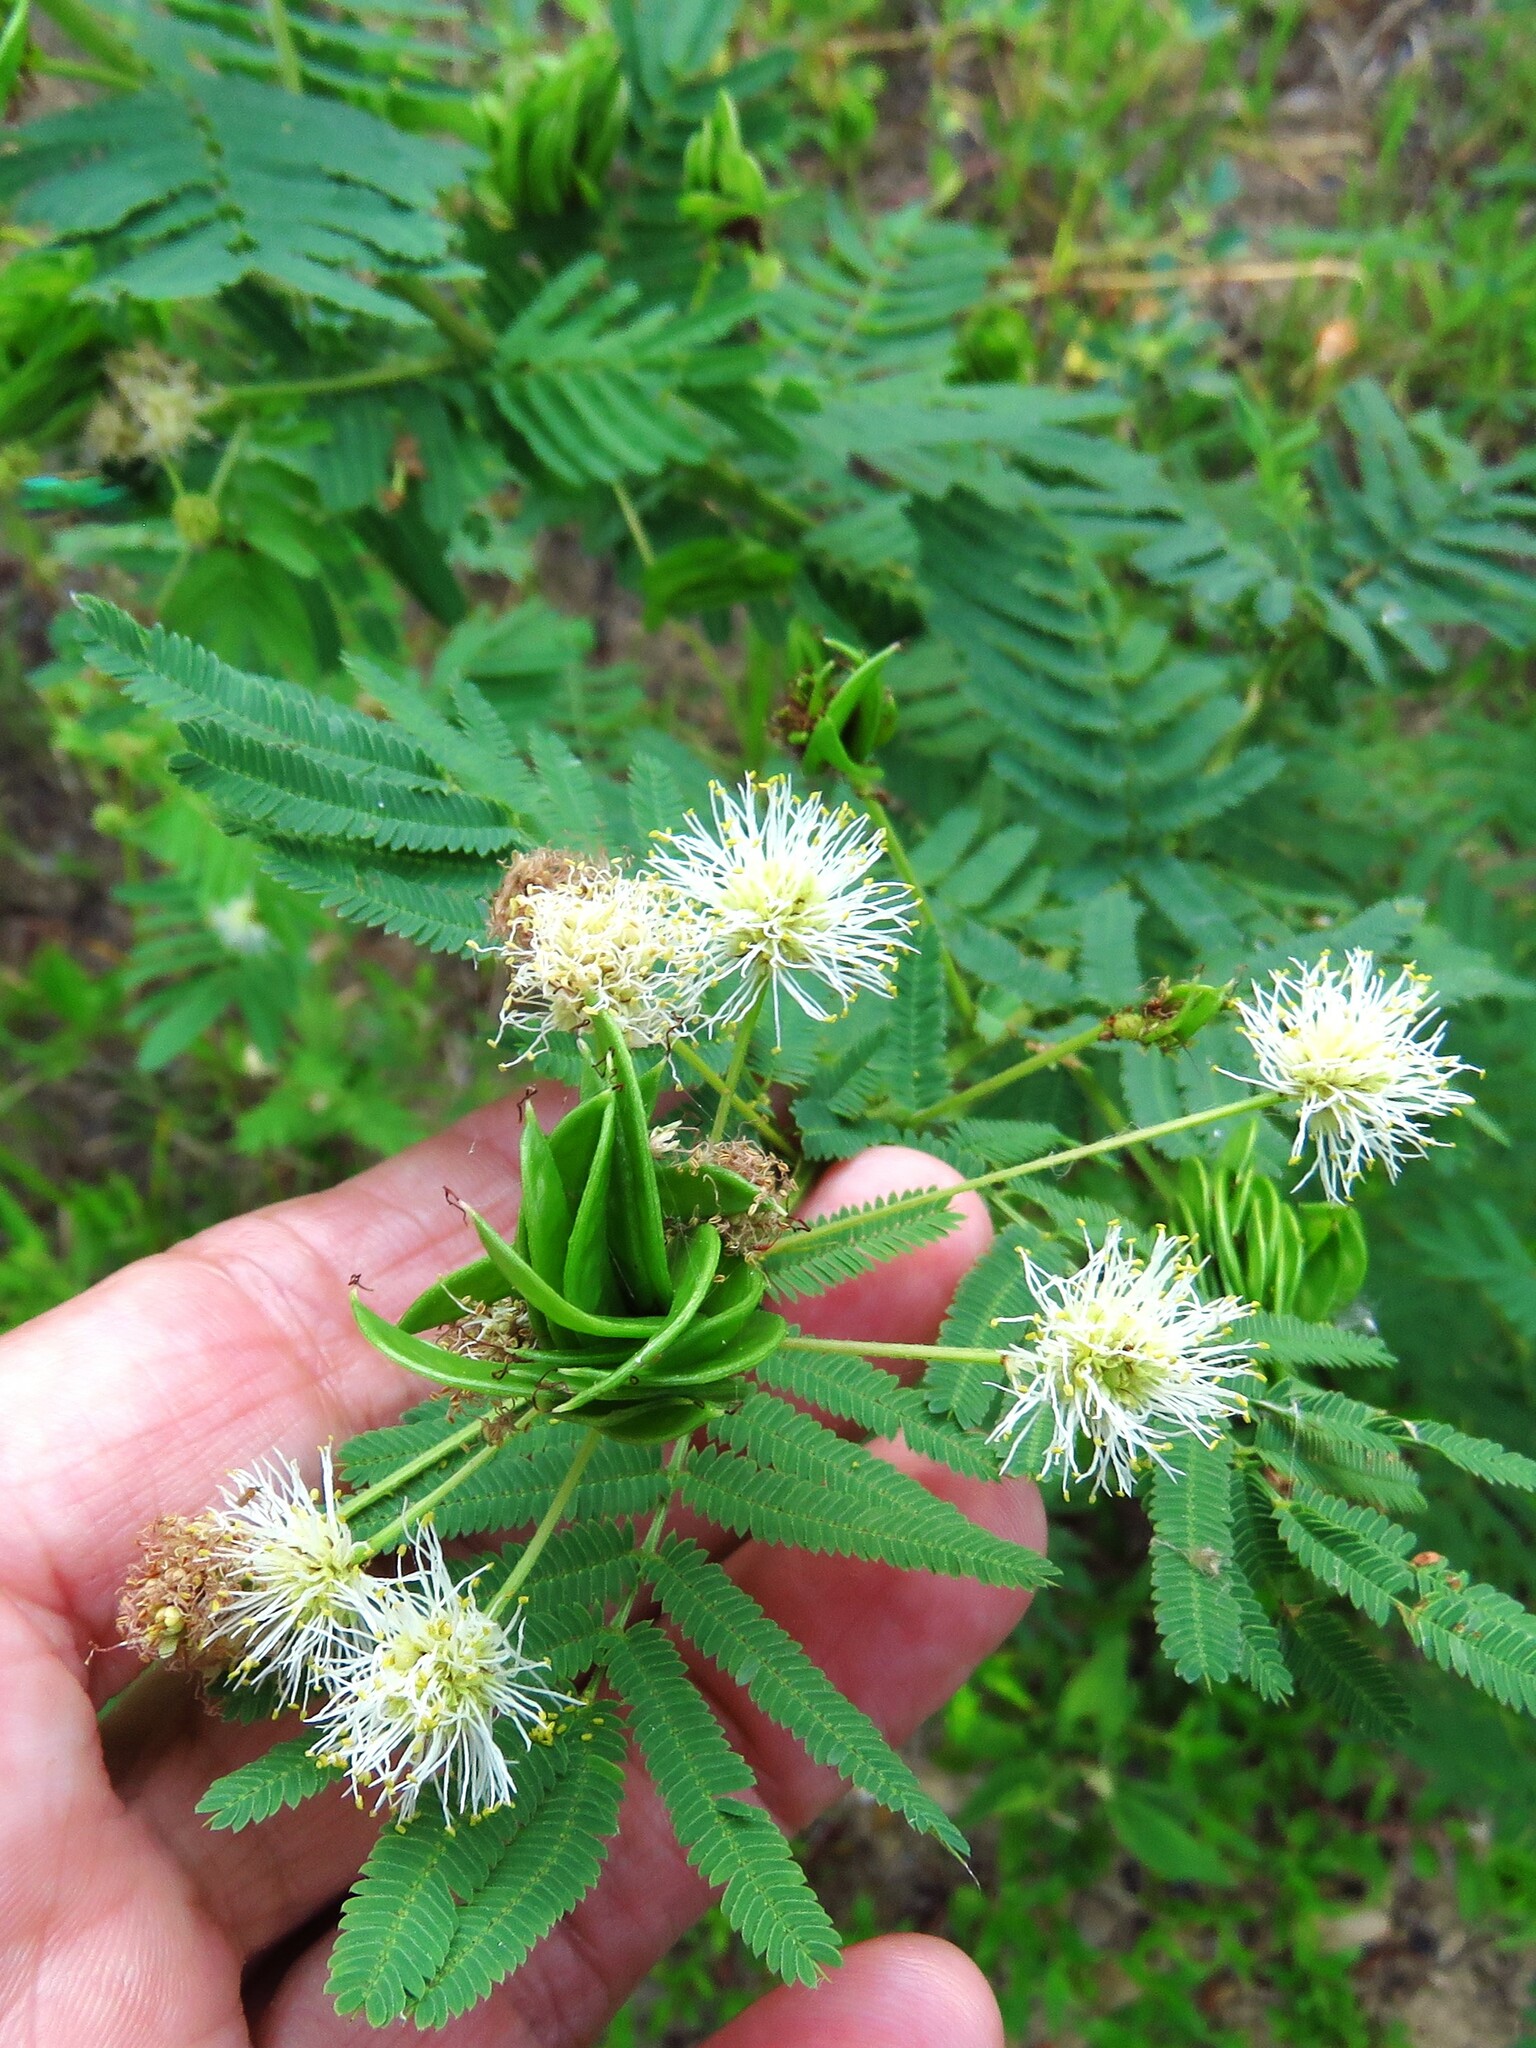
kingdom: Plantae
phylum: Tracheophyta
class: Magnoliopsida
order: Fabales
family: Fabaceae
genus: Desmanthus
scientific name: Desmanthus illinoensis
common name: Illinois bundle-flower
